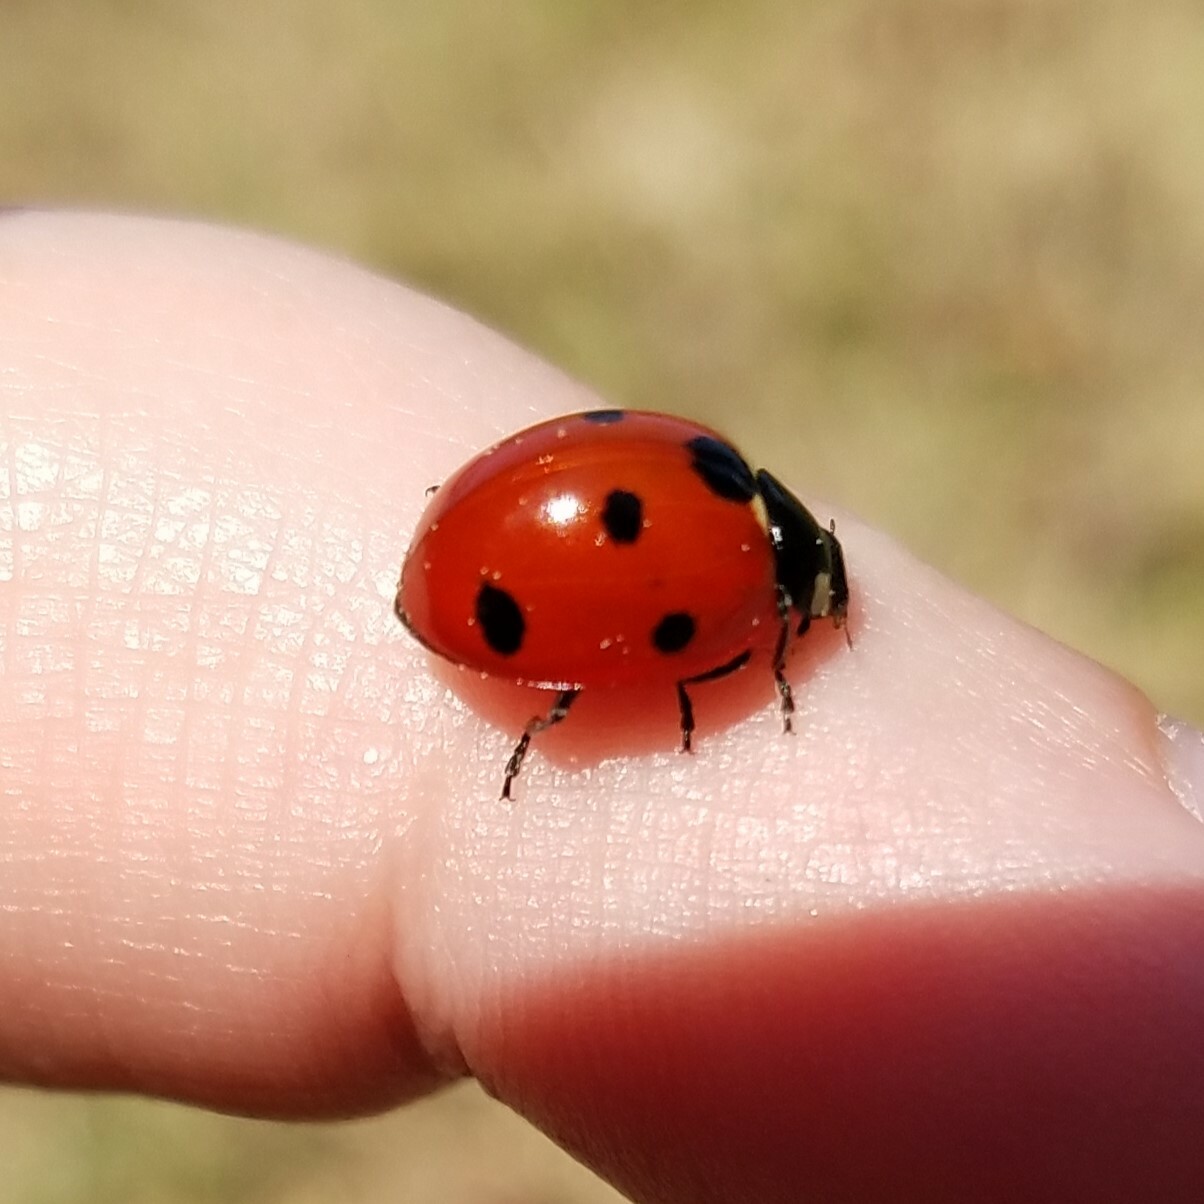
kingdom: Animalia
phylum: Arthropoda
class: Insecta
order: Coleoptera
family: Coccinellidae
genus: Coccinella
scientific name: Coccinella septempunctata
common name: Sevenspotted lady beetle
